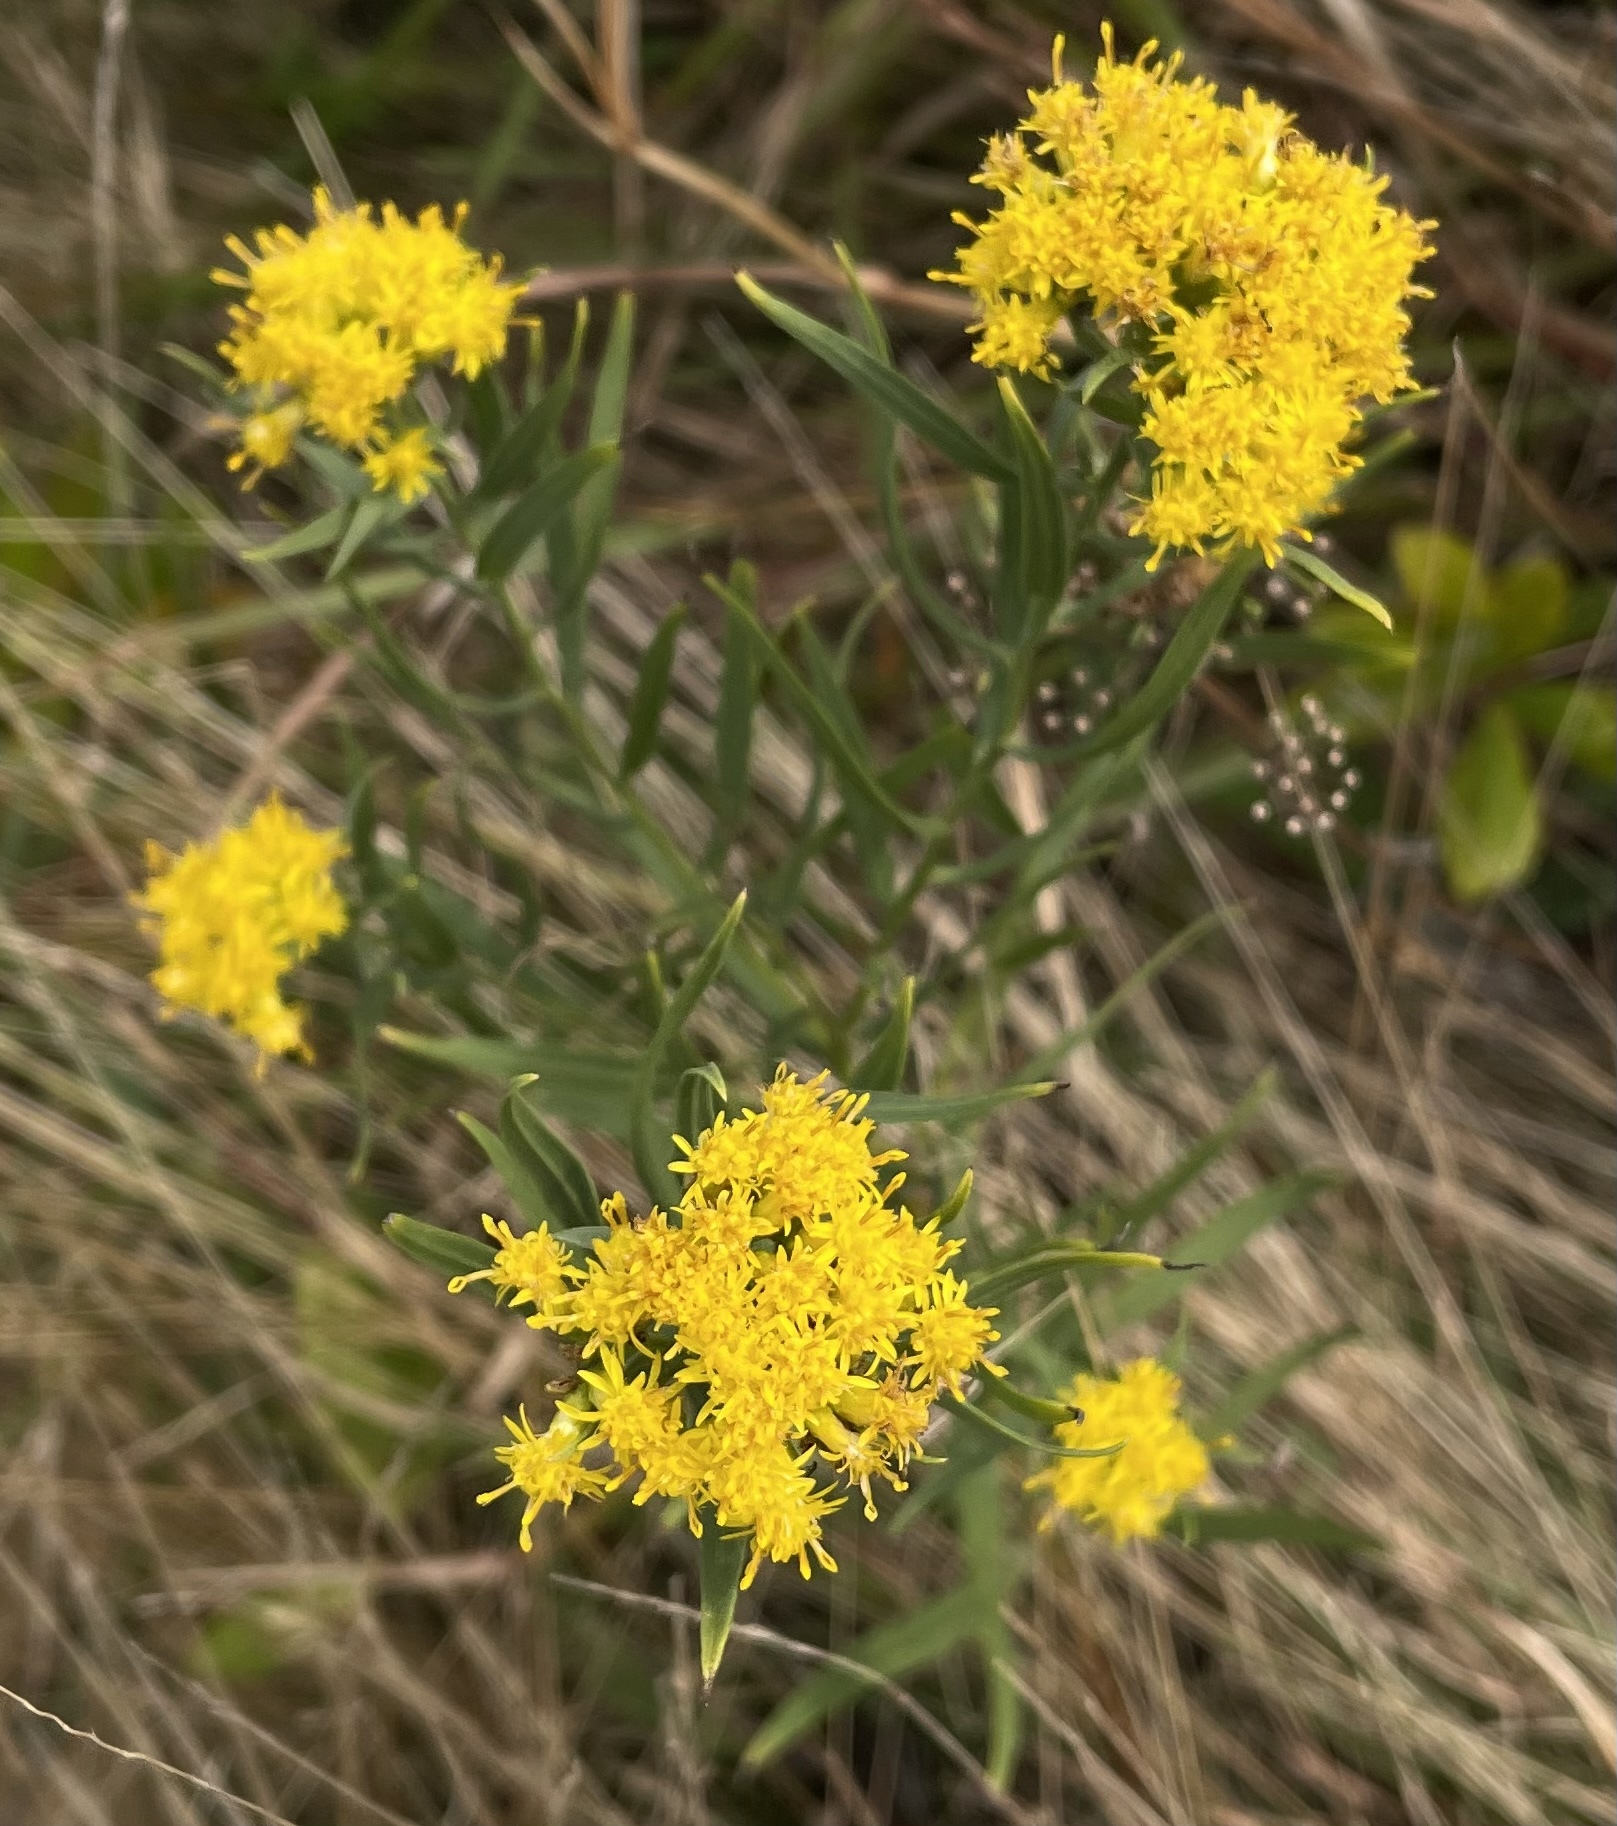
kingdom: Plantae
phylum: Tracheophyta
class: Magnoliopsida
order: Asterales
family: Asteraceae
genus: Euthamia
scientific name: Euthamia graminifolia
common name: Common goldentop
